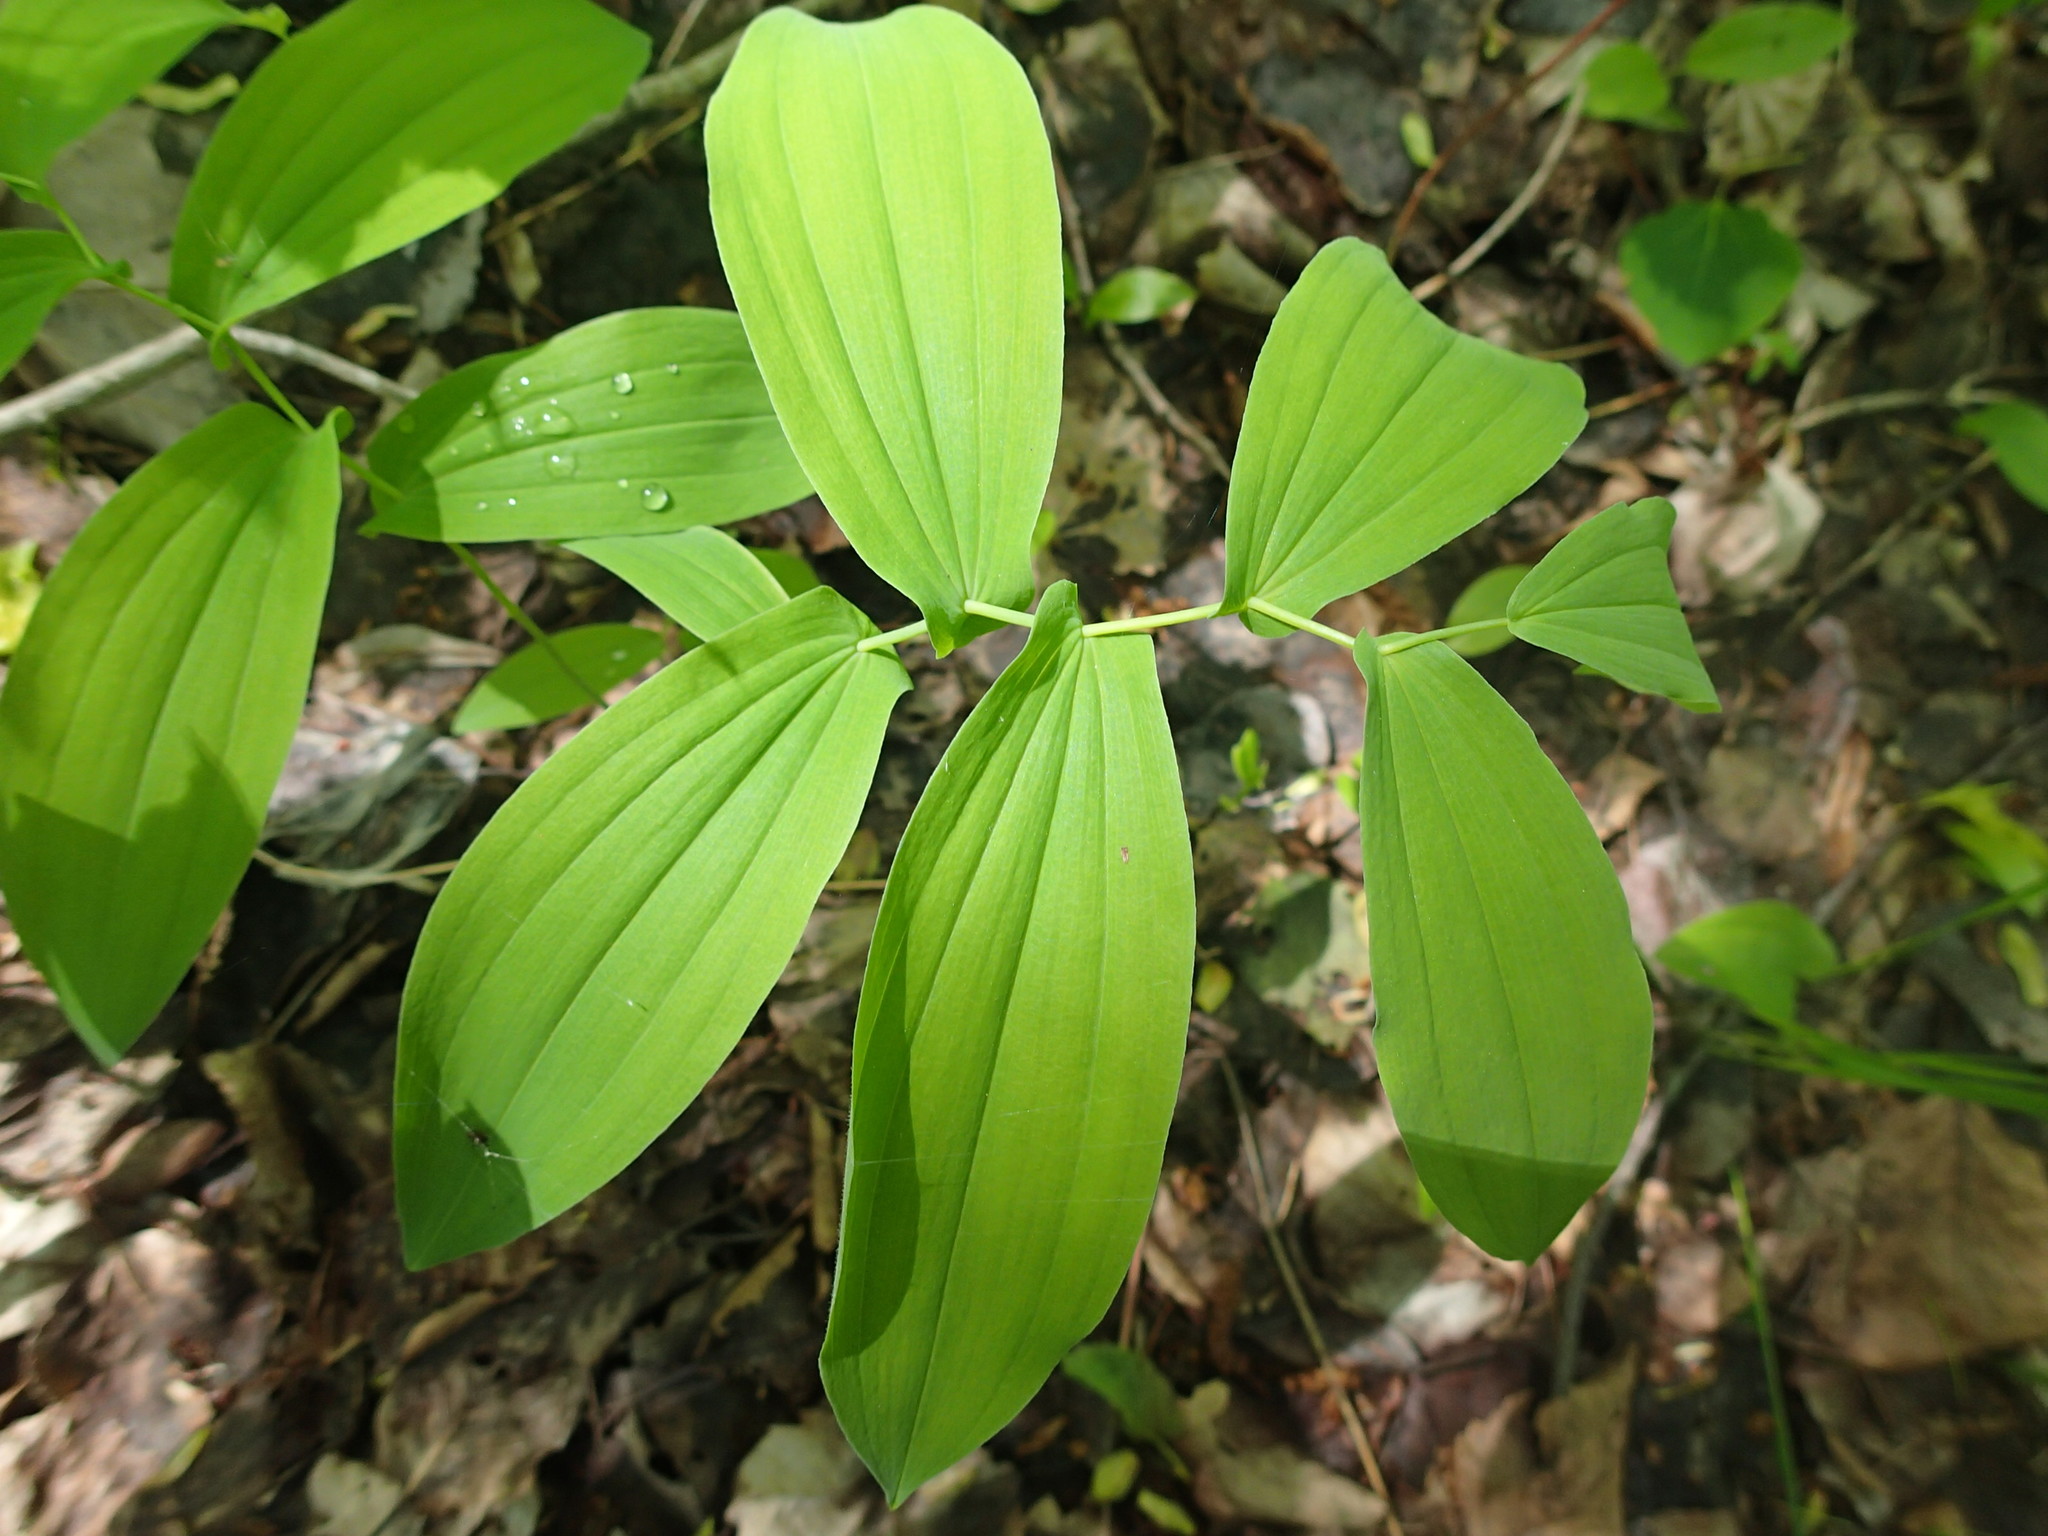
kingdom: Plantae
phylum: Tracheophyta
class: Liliopsida
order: Liliales
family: Colchicaceae
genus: Uvularia
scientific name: Uvularia grandiflora
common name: Bellwort
